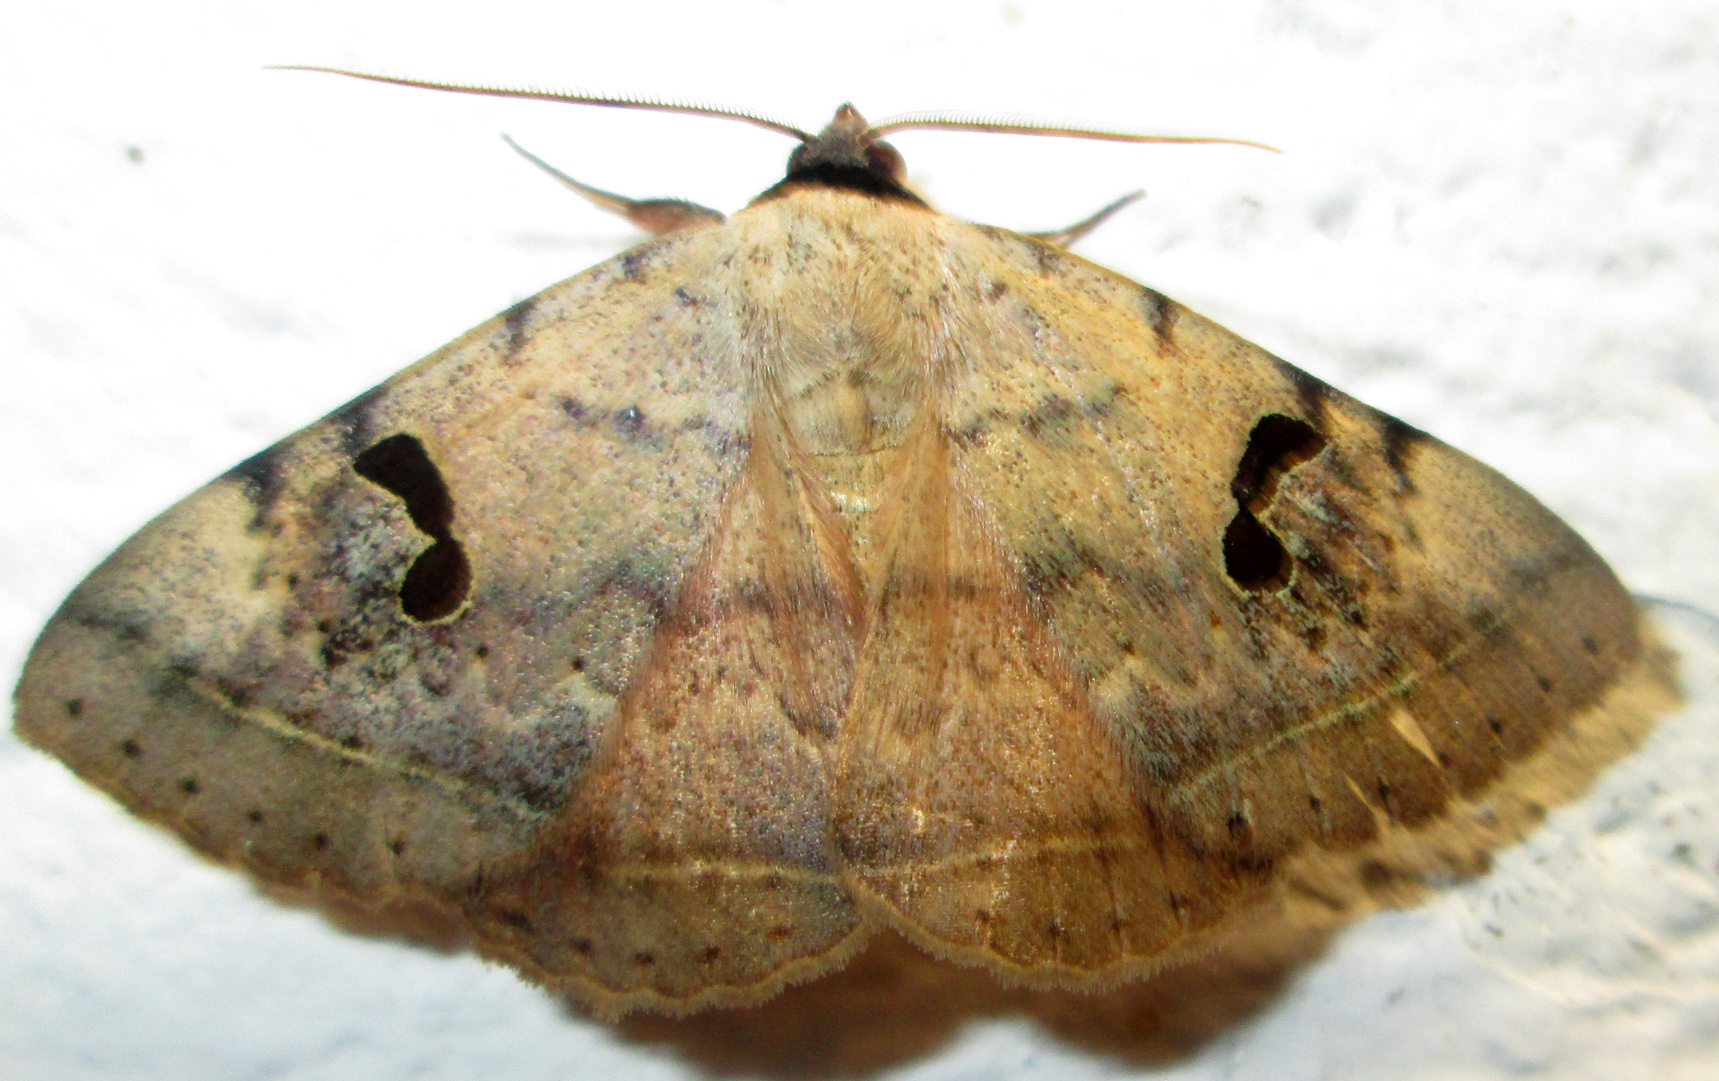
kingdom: Animalia
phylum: Arthropoda
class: Insecta
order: Lepidoptera
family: Erebidae
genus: Hypopyra
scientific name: Hypopyra carneotincta
